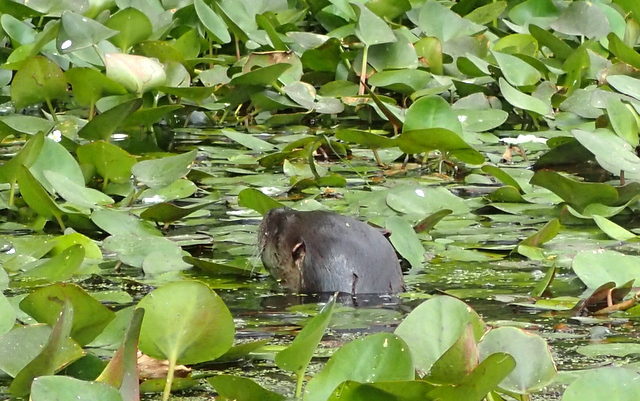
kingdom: Animalia
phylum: Chordata
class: Mammalia
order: Carnivora
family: Mustelidae
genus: Lontra
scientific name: Lontra canadensis
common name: North american river otter
